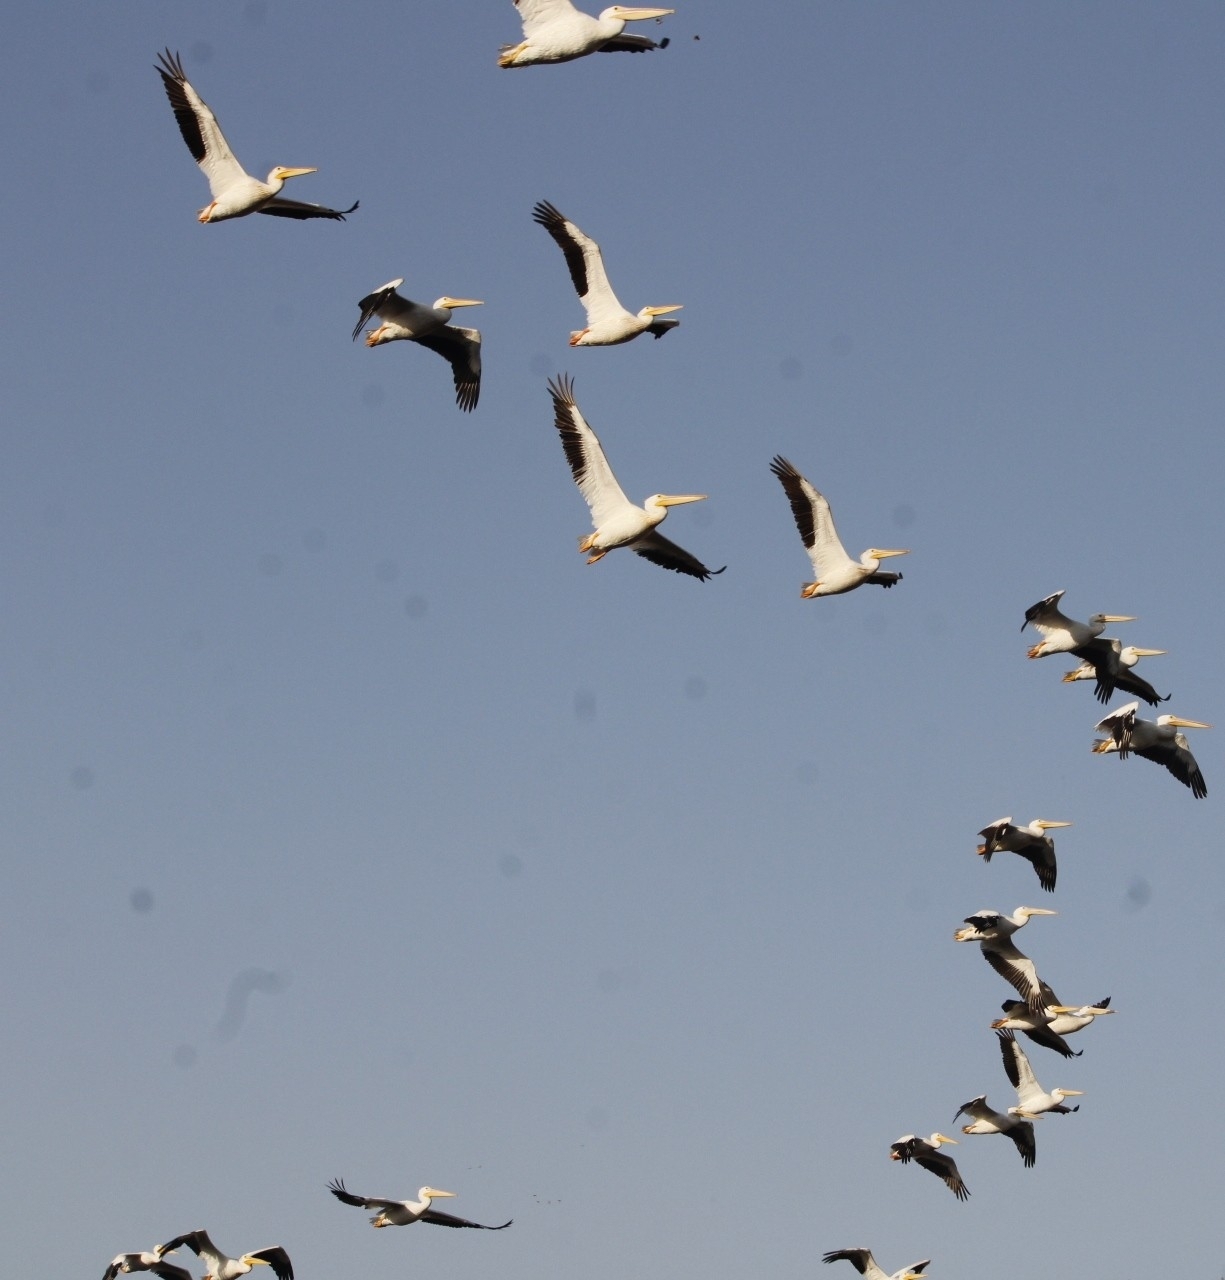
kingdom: Animalia
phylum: Chordata
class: Aves
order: Pelecaniformes
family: Pelecanidae
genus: Pelecanus
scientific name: Pelecanus erythrorhynchos
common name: American white pelican
